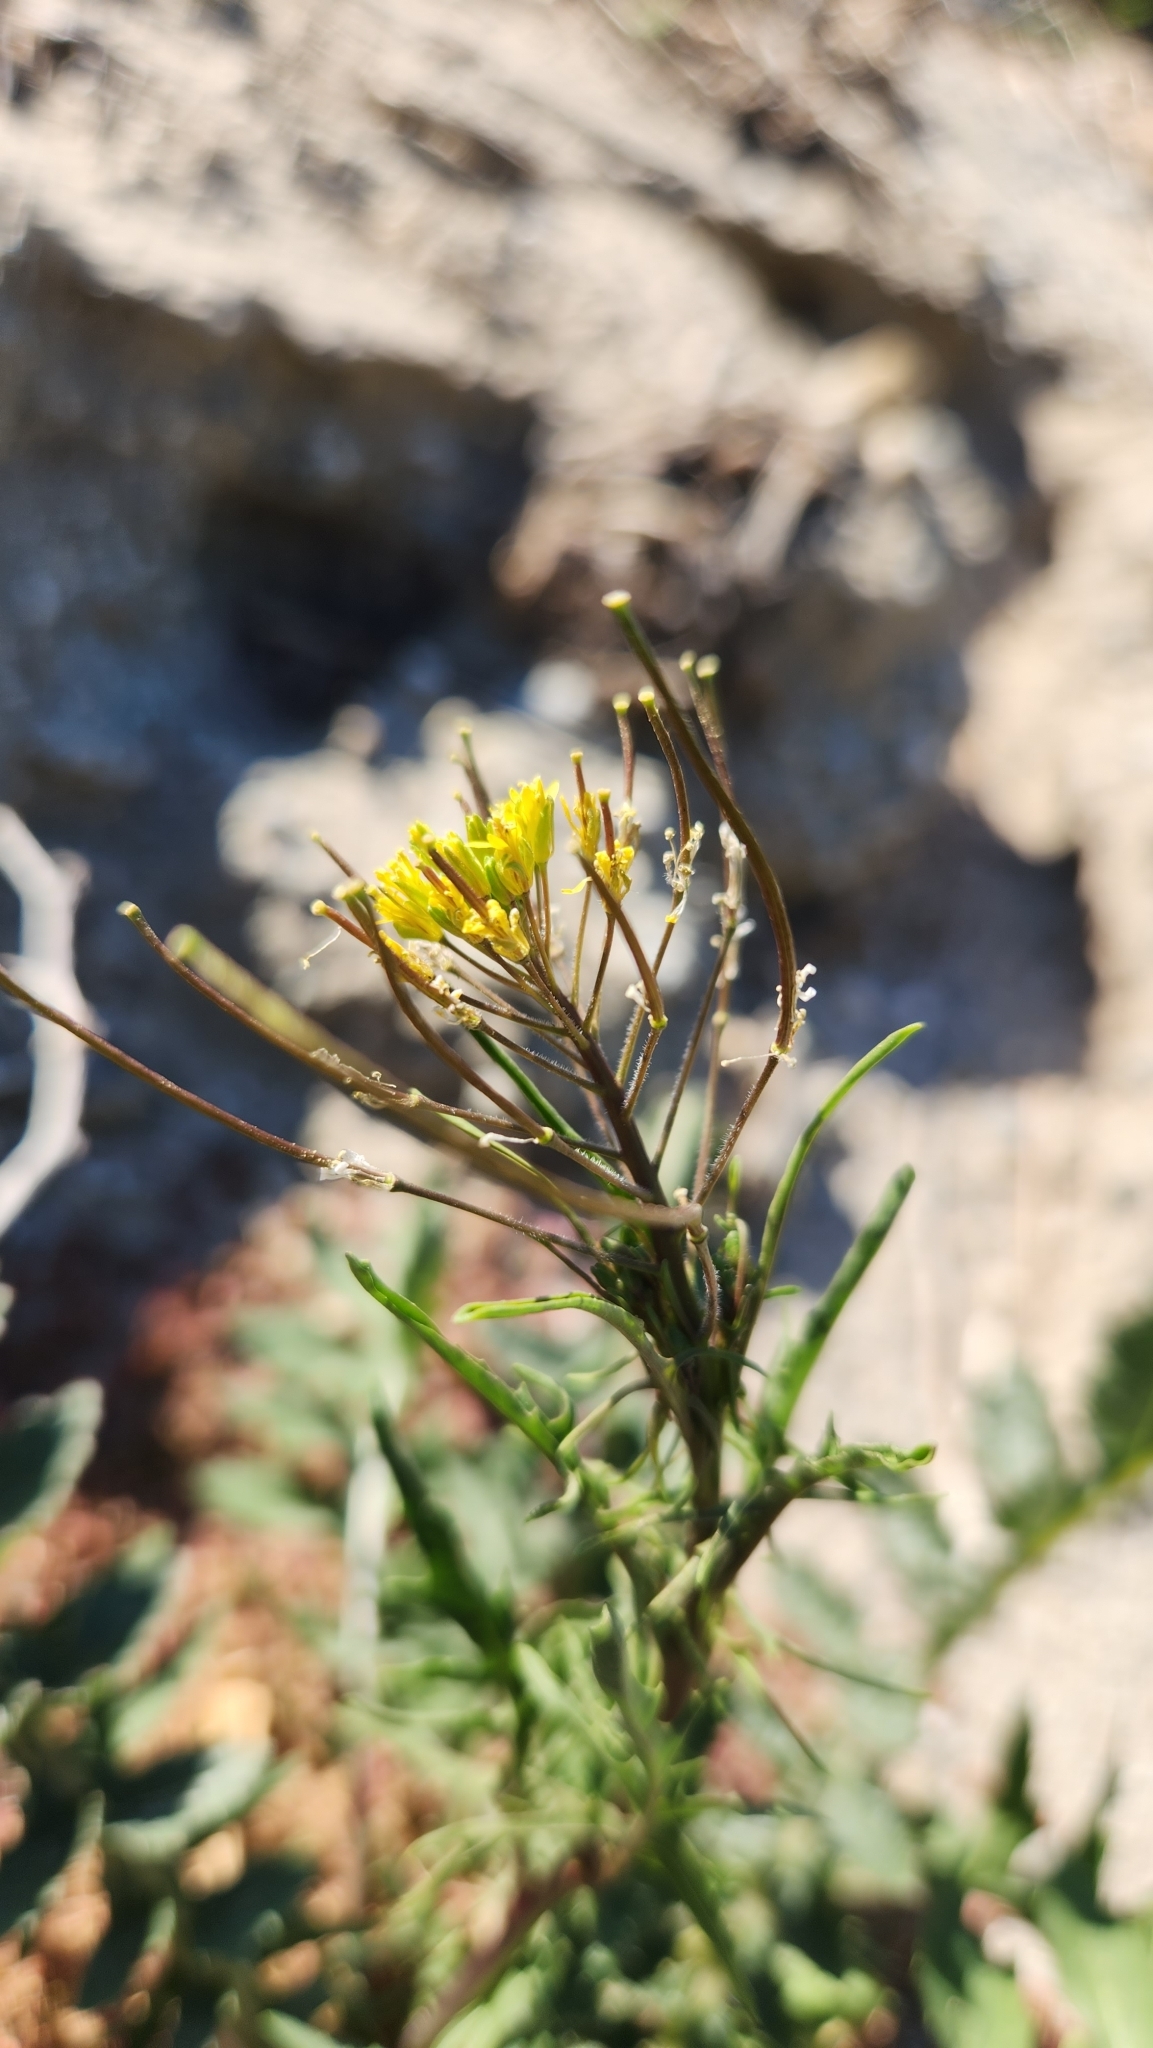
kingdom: Plantae
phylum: Tracheophyta
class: Magnoliopsida
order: Brassicales
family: Brassicaceae
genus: Sisymbrium
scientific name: Sisymbrium irio
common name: London rocket
